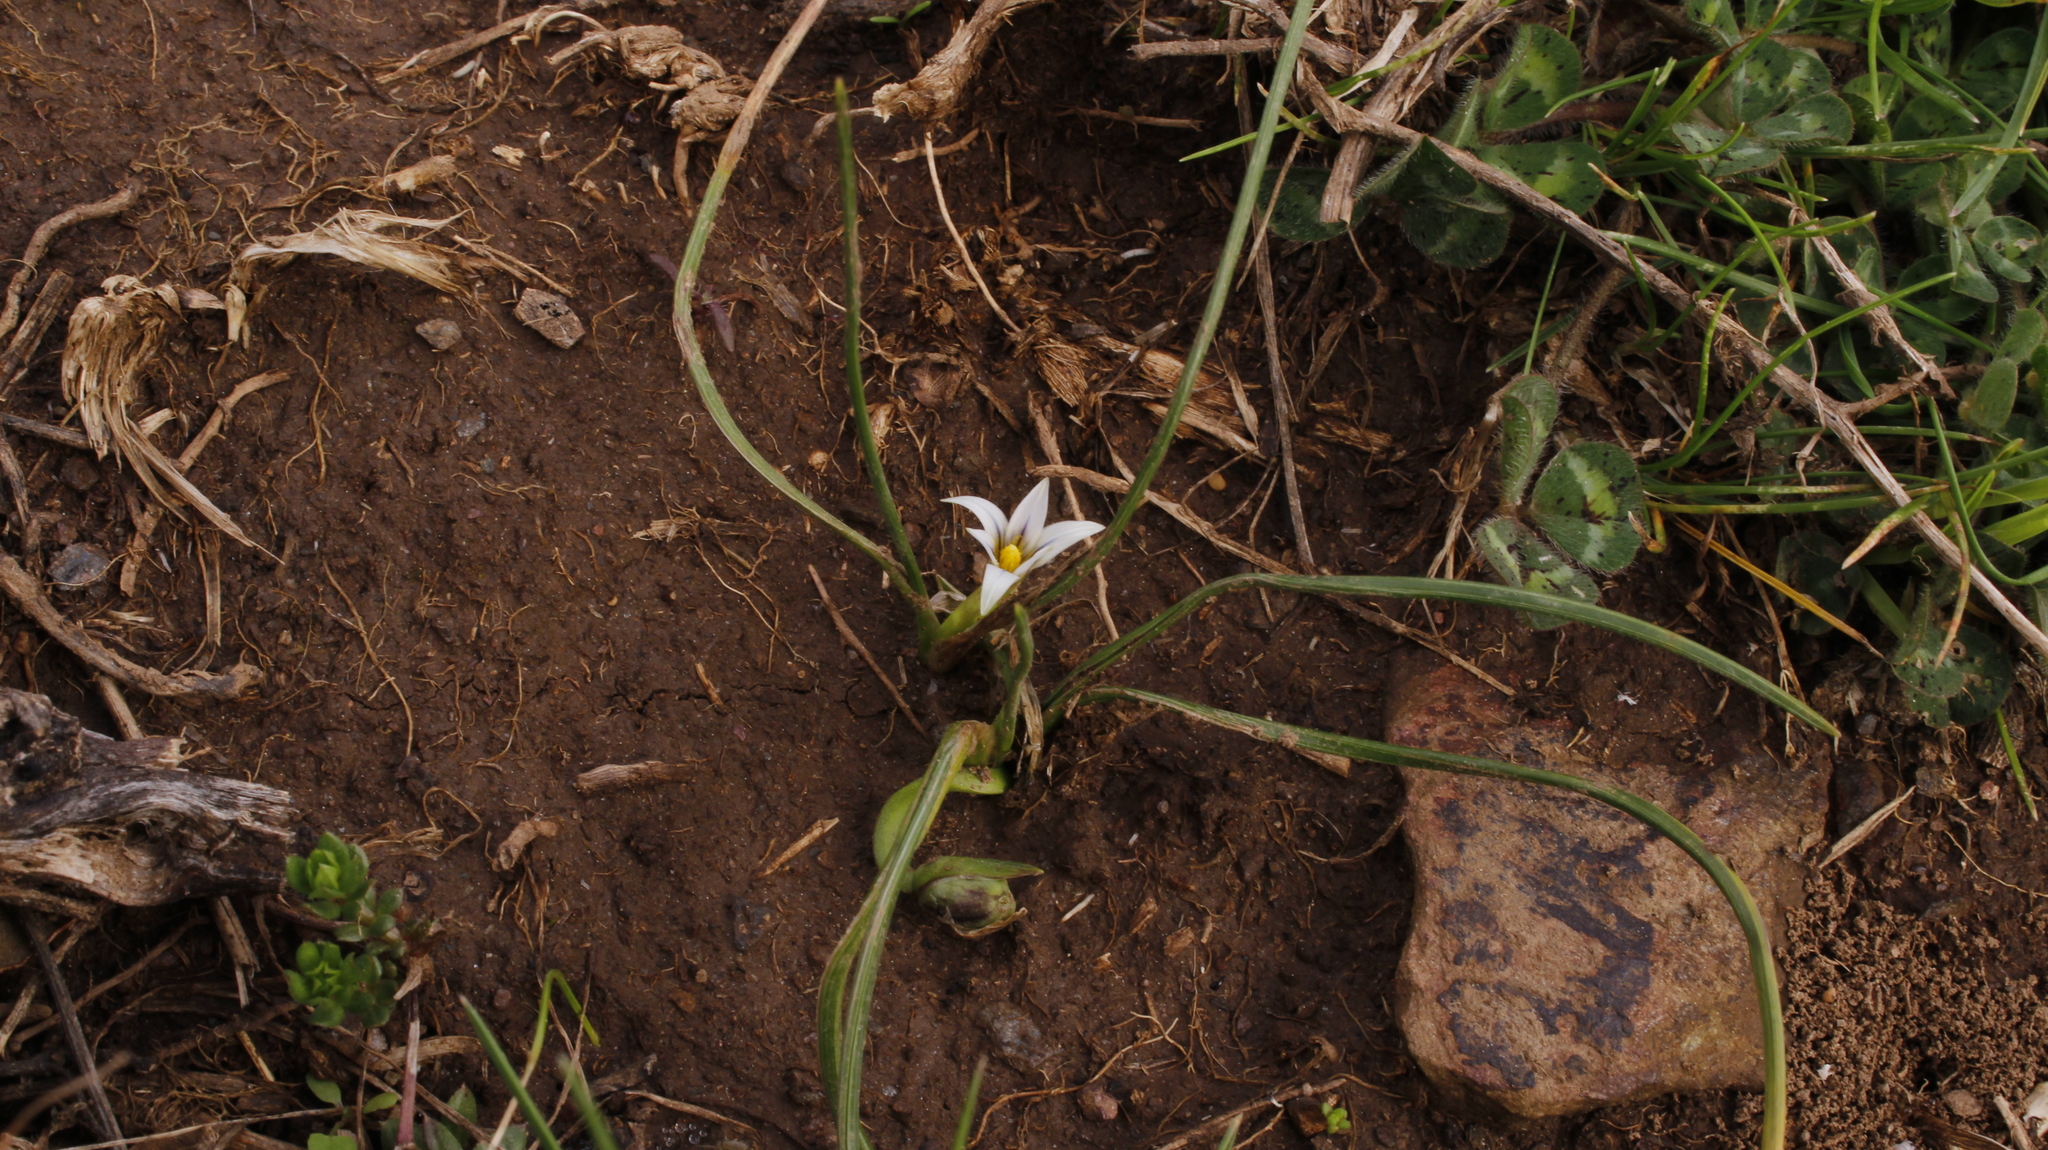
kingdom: Plantae
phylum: Tracheophyta
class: Liliopsida
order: Asparagales
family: Iridaceae
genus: Romulea
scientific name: Romulea columnae
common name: Sand-crocus
